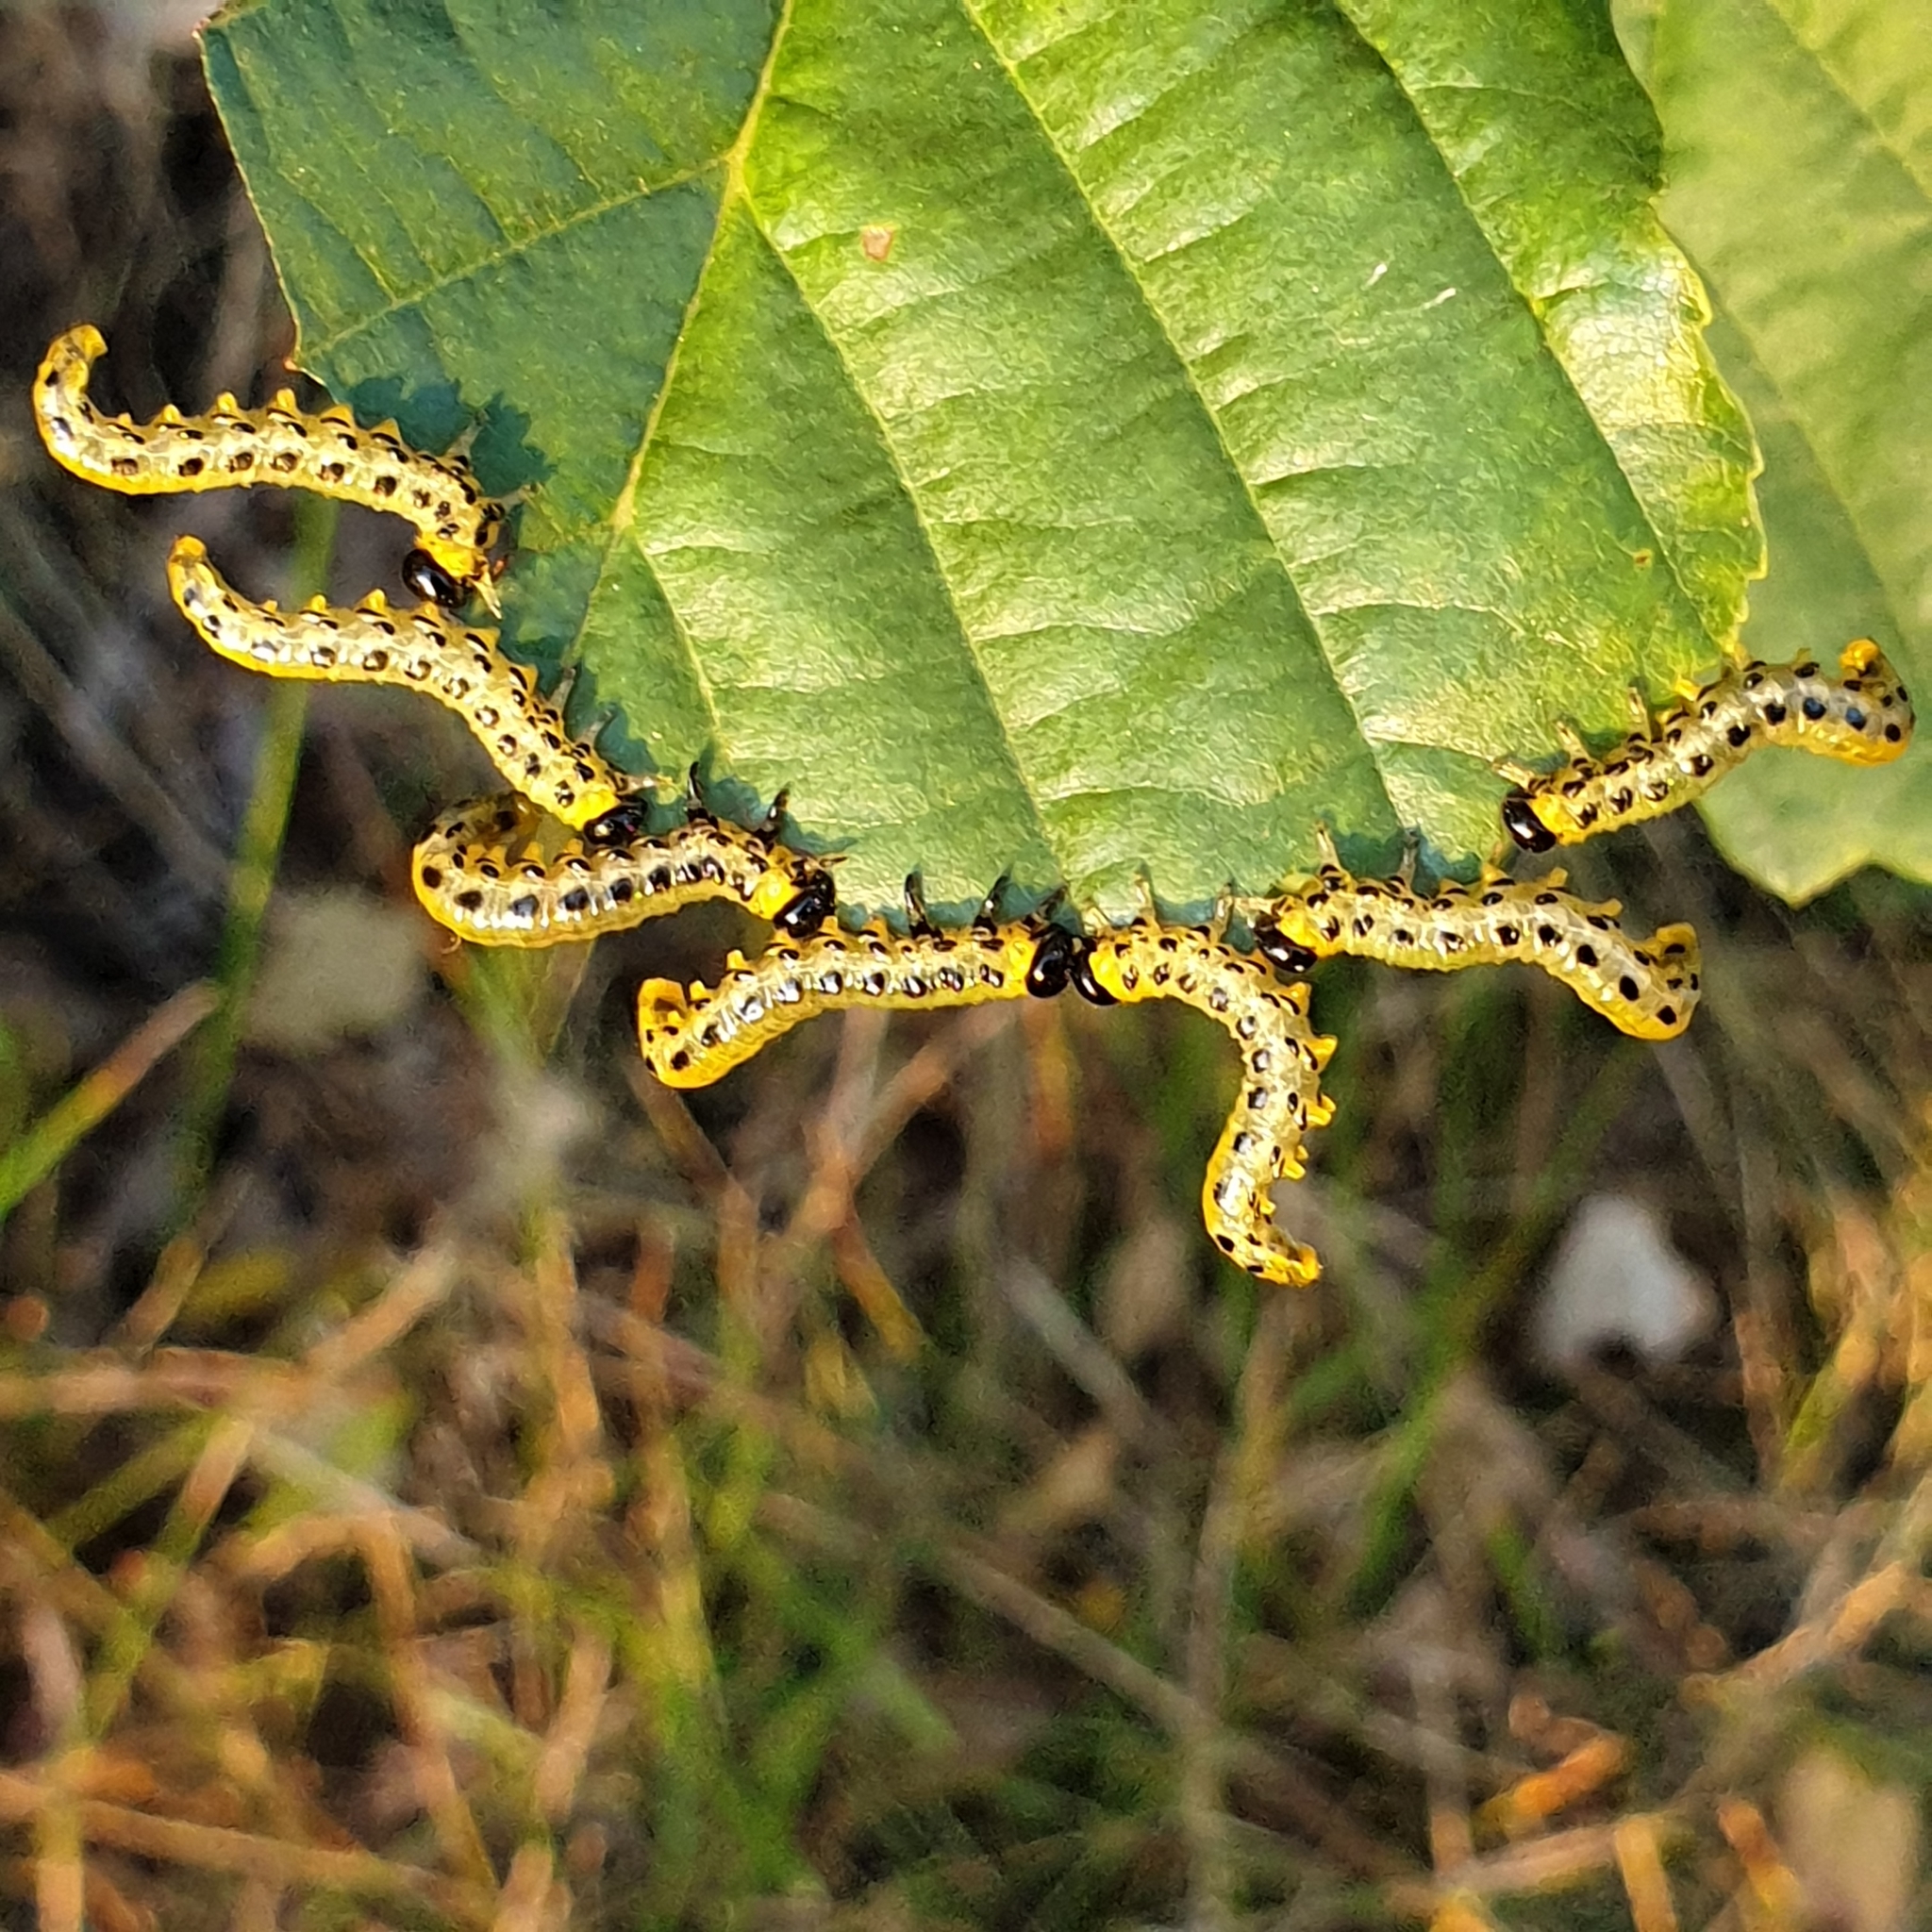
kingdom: Animalia
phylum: Arthropoda
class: Insecta
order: Hymenoptera
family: Tenthredinidae
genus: Craesus
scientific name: Craesus septentrionalis
